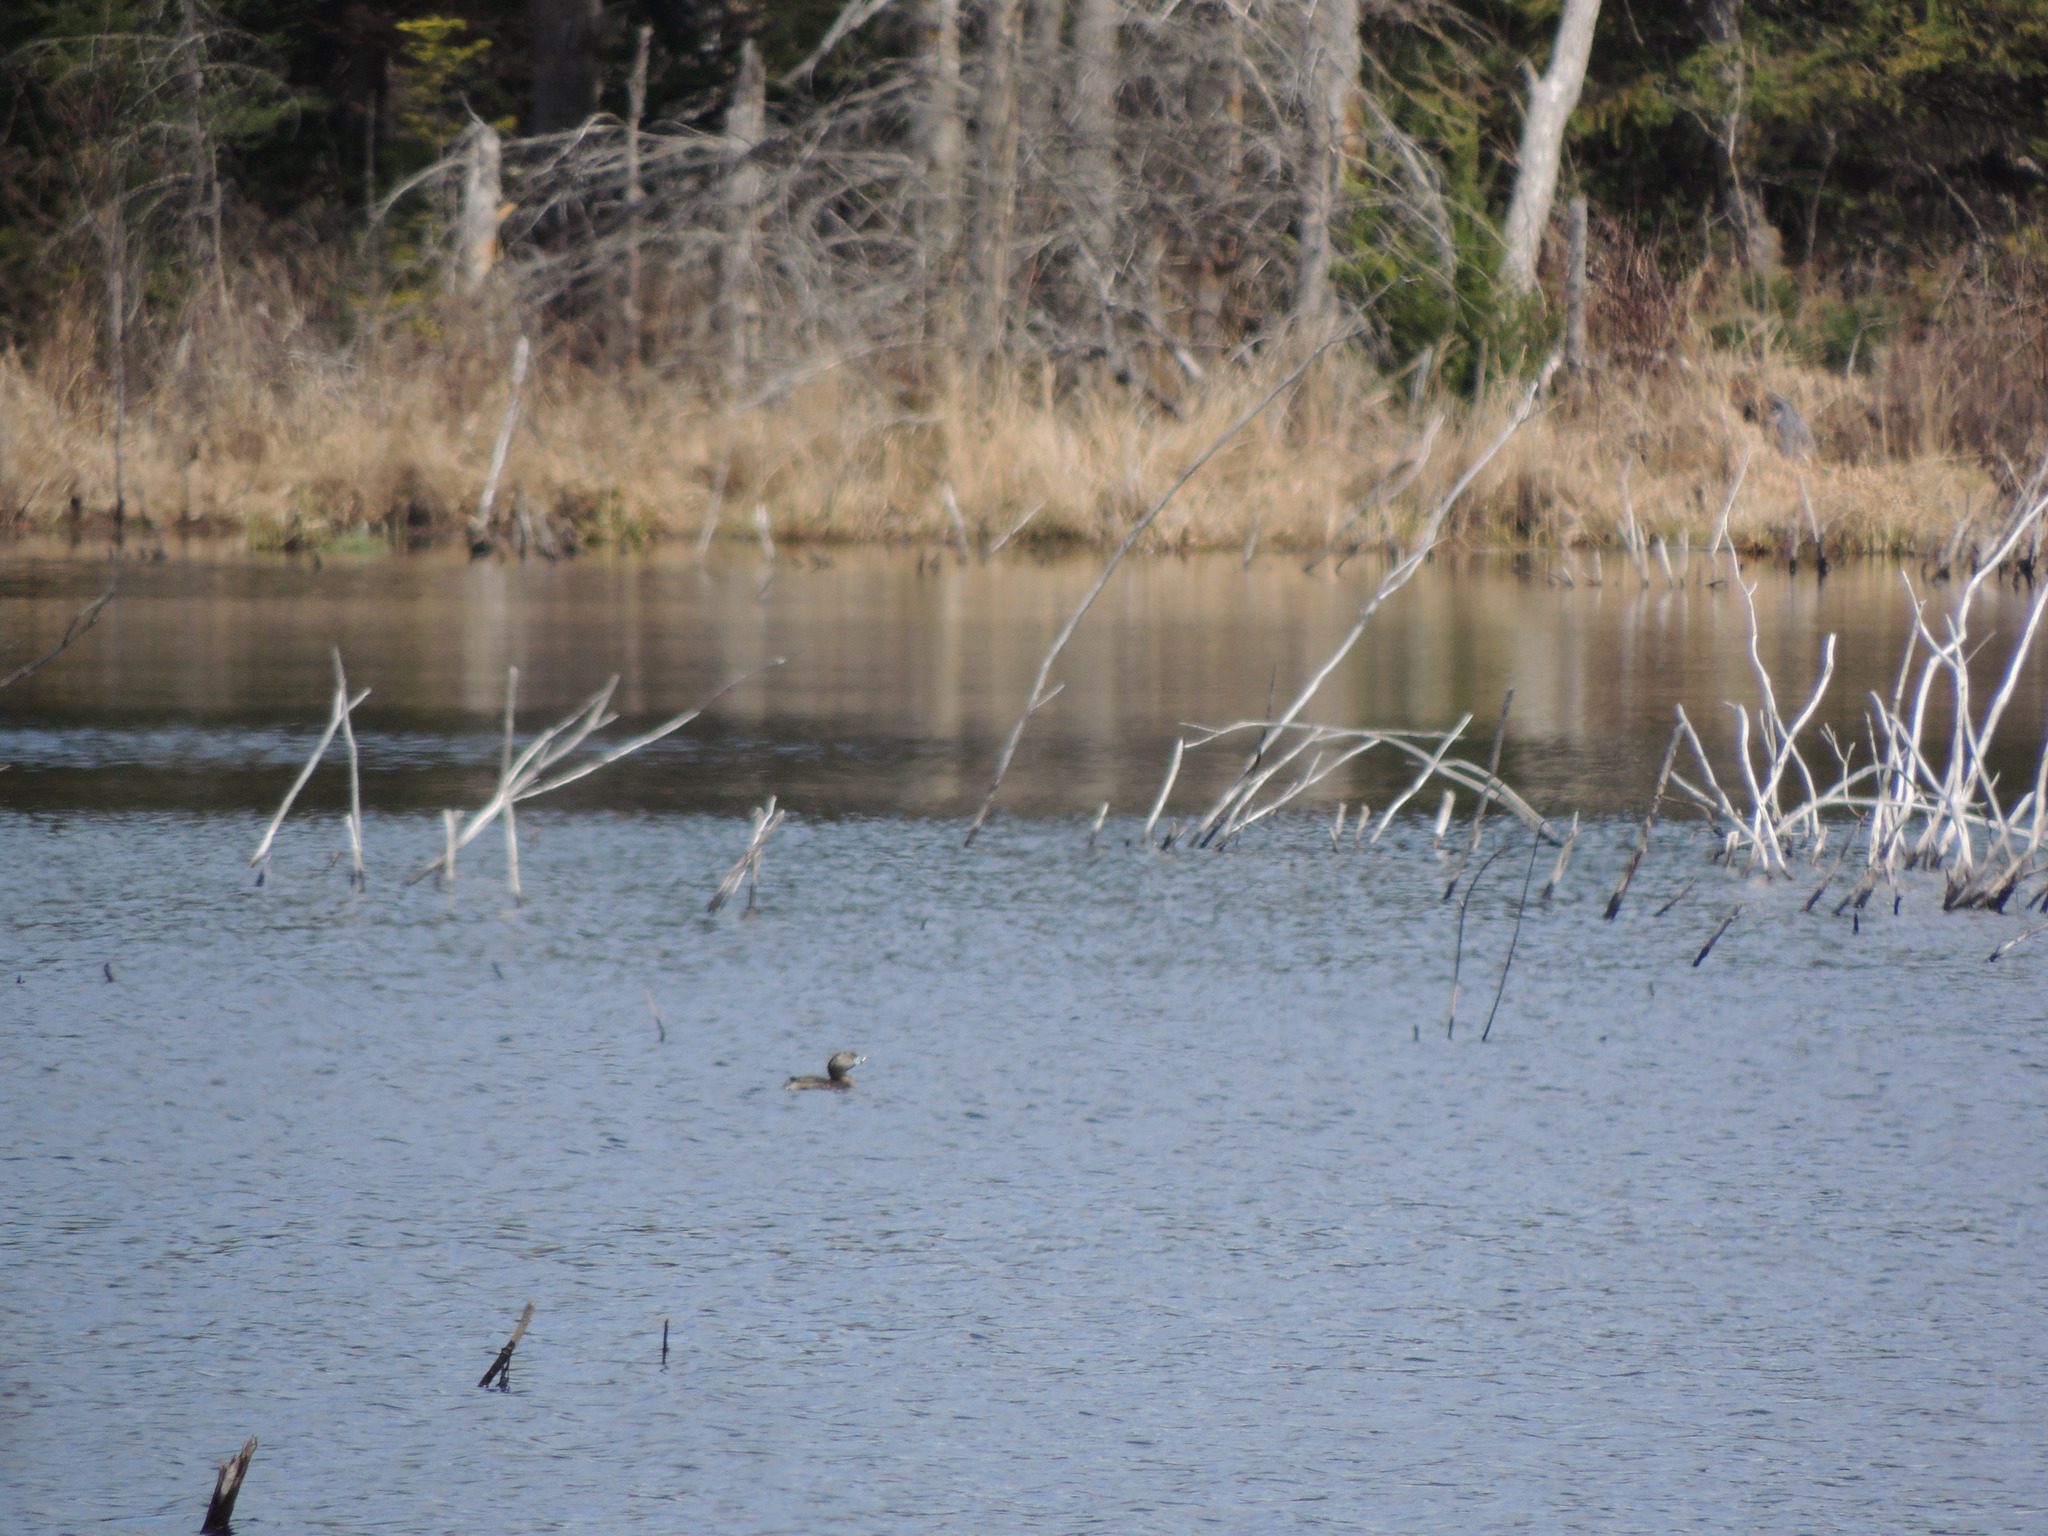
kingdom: Animalia
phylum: Chordata
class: Aves
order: Podicipediformes
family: Podicipedidae
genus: Podilymbus
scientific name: Podilymbus podiceps
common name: Pied-billed grebe
